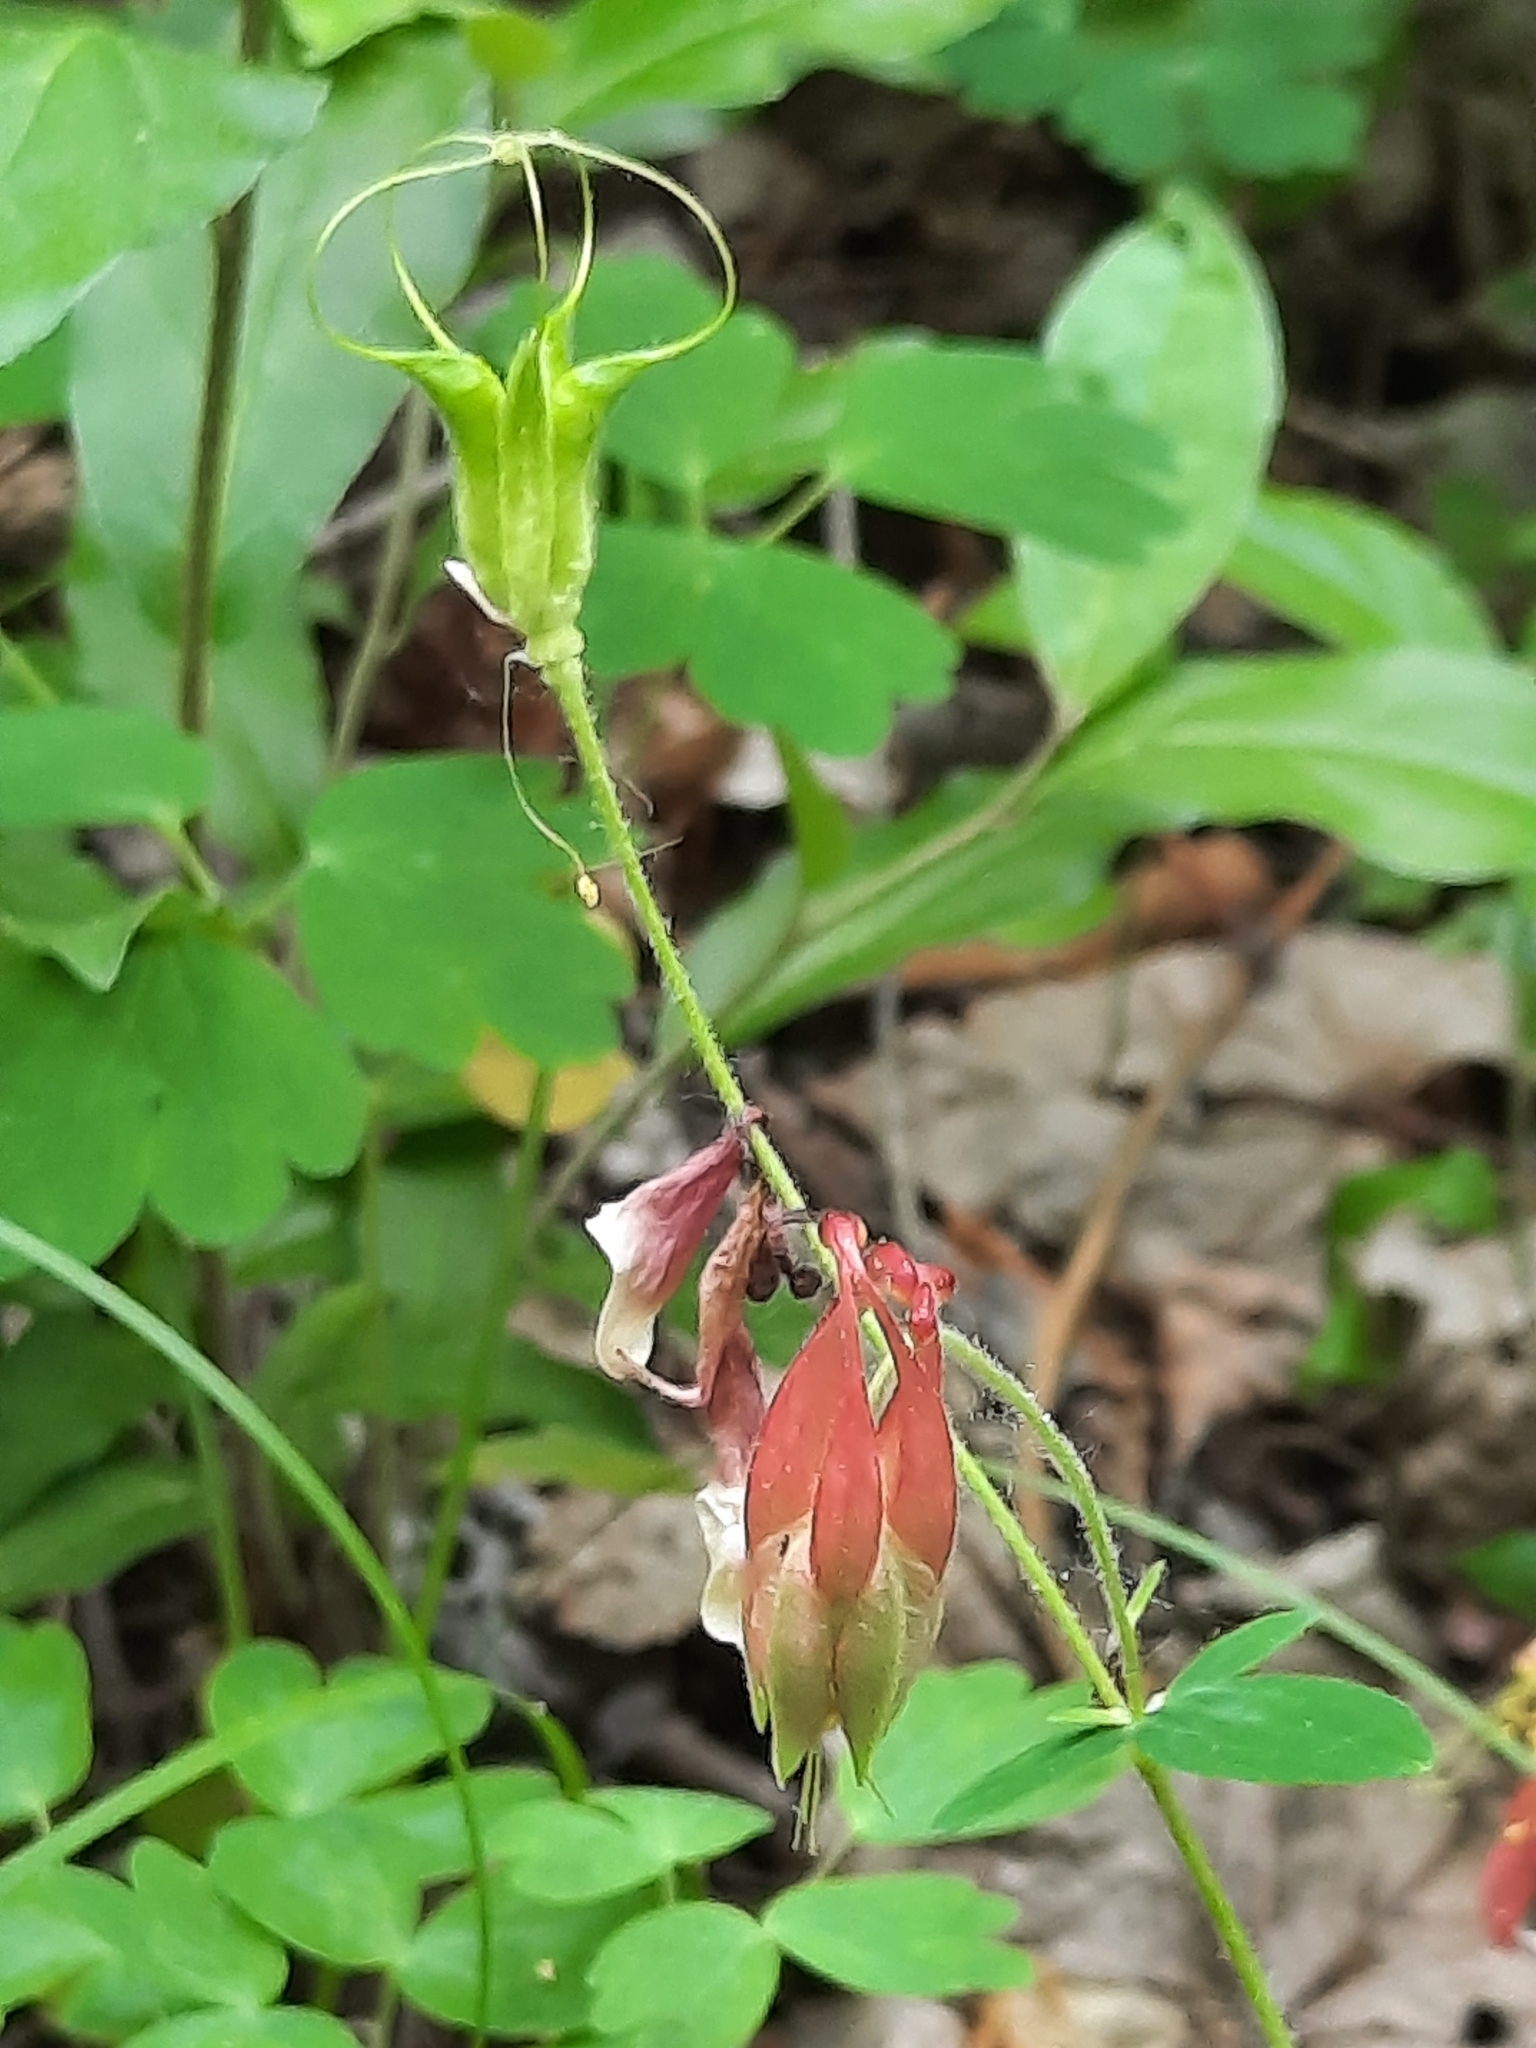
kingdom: Plantae
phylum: Tracheophyta
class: Magnoliopsida
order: Ranunculales
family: Ranunculaceae
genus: Aquilegia
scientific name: Aquilegia canadensis
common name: American columbine
